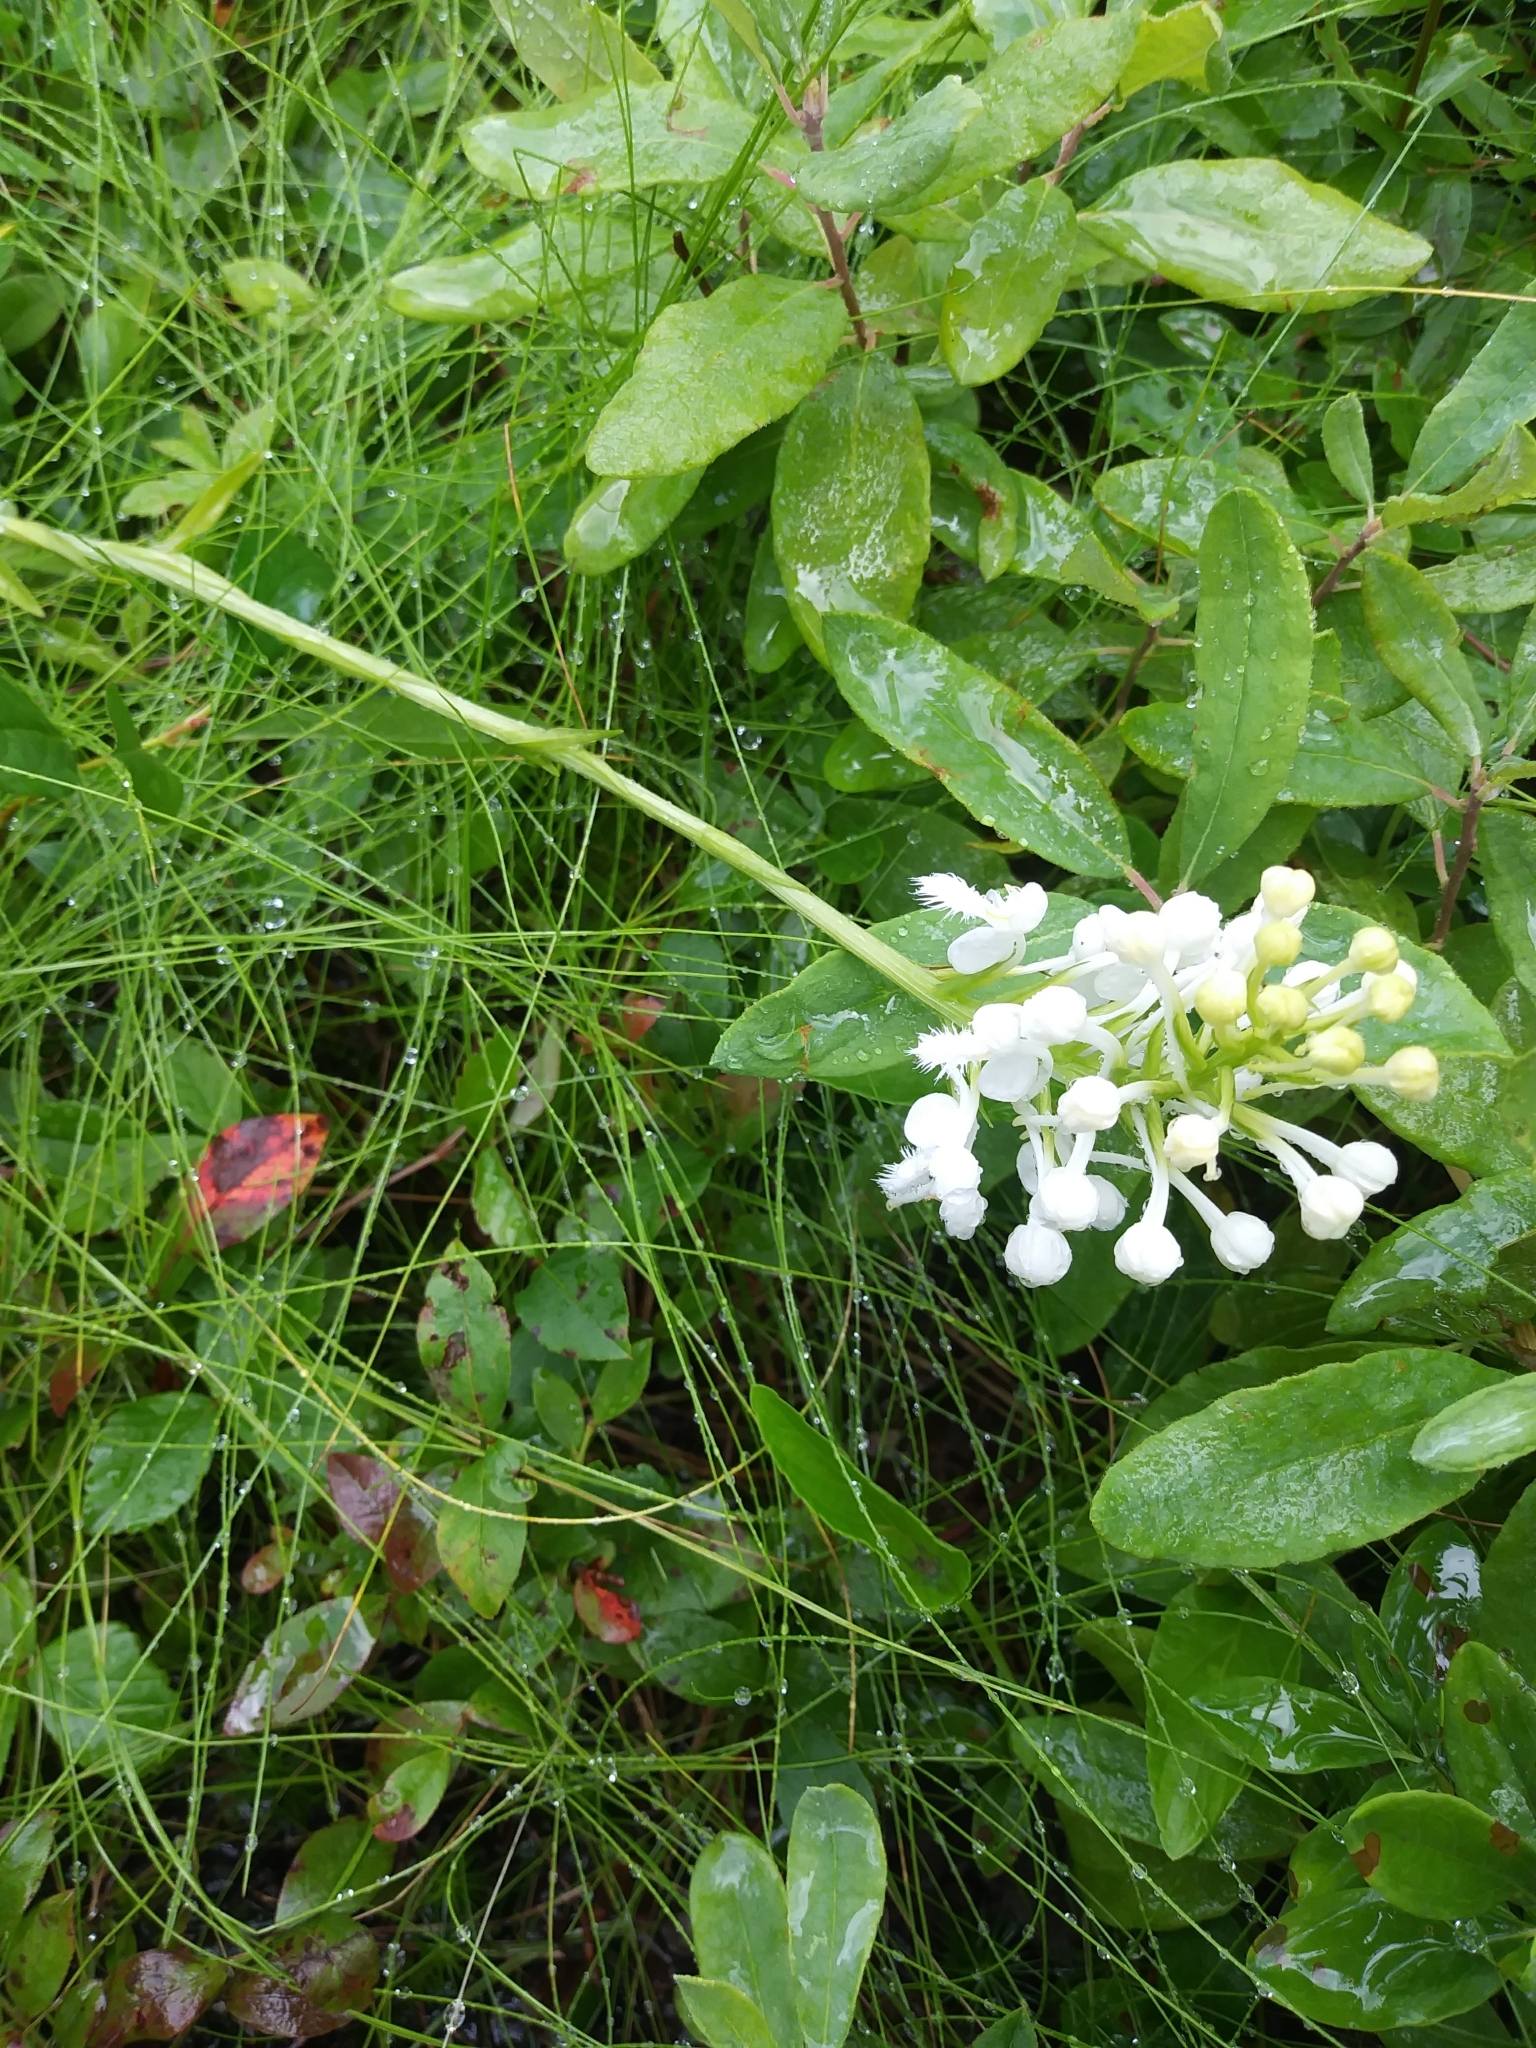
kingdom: Plantae
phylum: Tracheophyta
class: Liliopsida
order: Asparagales
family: Orchidaceae
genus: Platanthera
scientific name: Platanthera blephariglottis
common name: White fringed orchid
